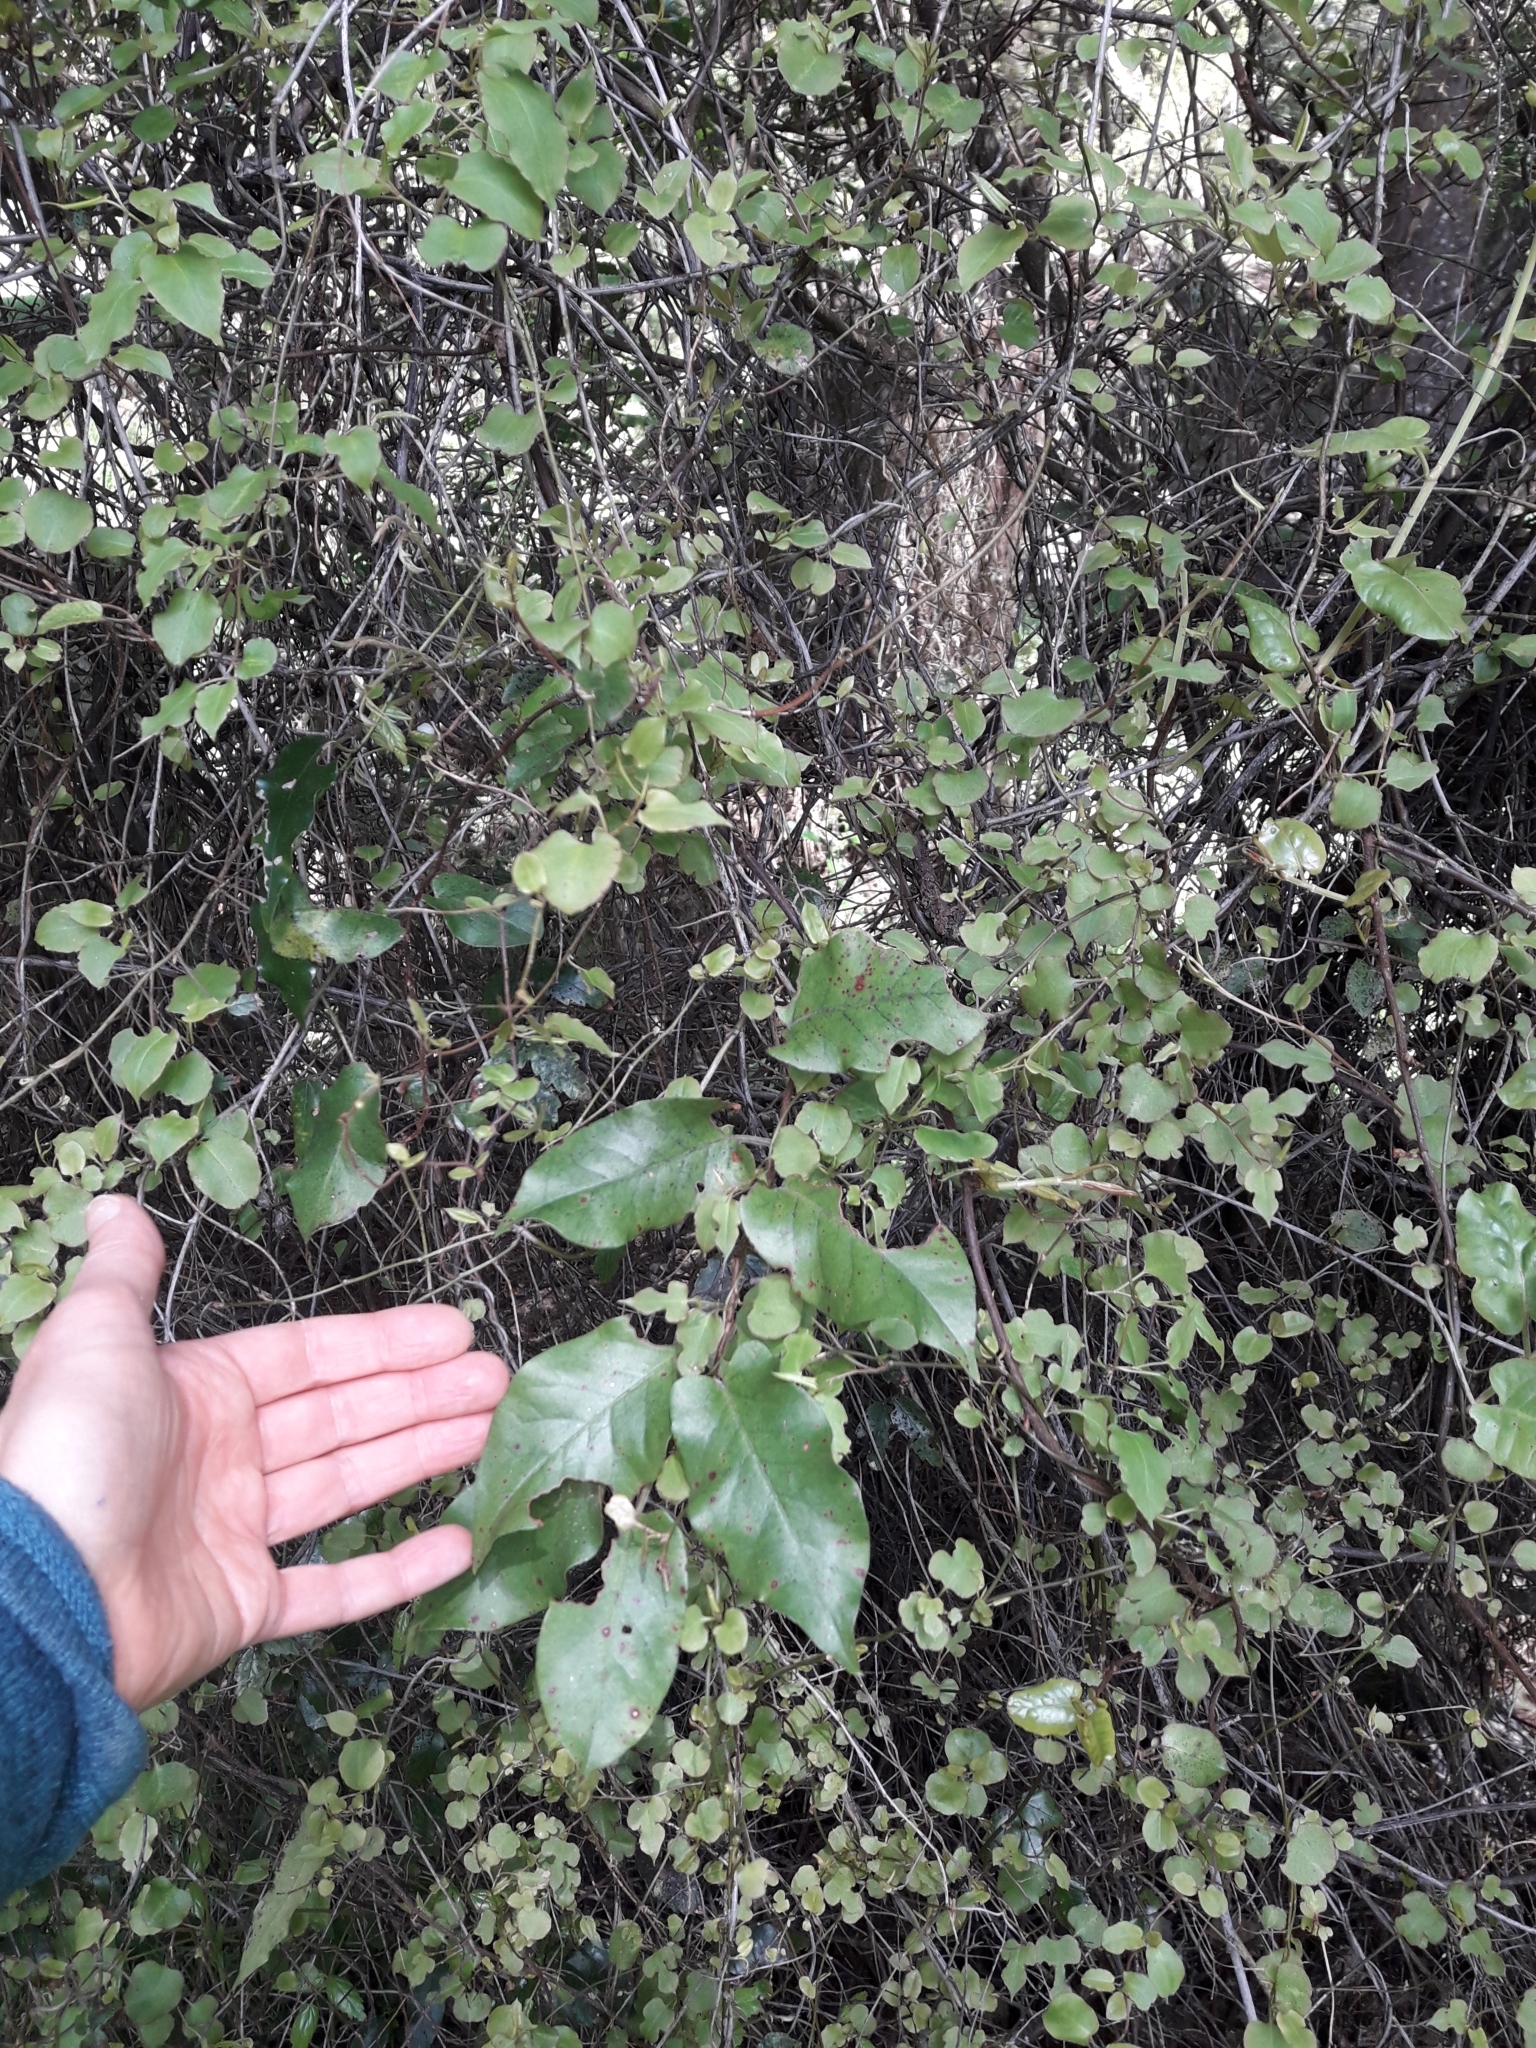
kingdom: Plantae
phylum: Tracheophyta
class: Magnoliopsida
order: Caryophyllales
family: Polygonaceae
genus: Muehlenbeckia
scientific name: Muehlenbeckia australis
